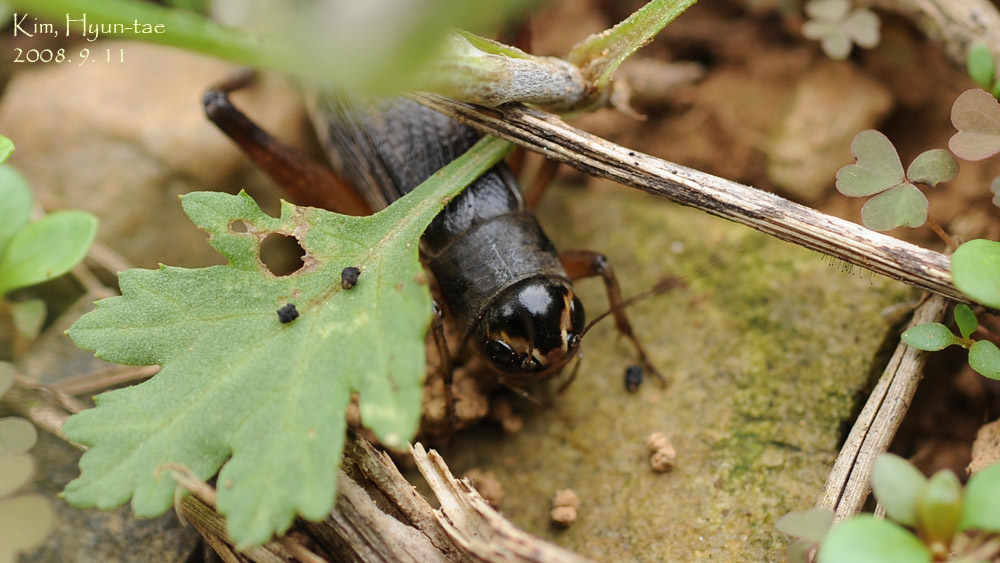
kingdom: Animalia
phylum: Arthropoda
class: Insecta
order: Orthoptera
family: Gryllidae
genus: Teleogryllus
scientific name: Teleogryllus emma
